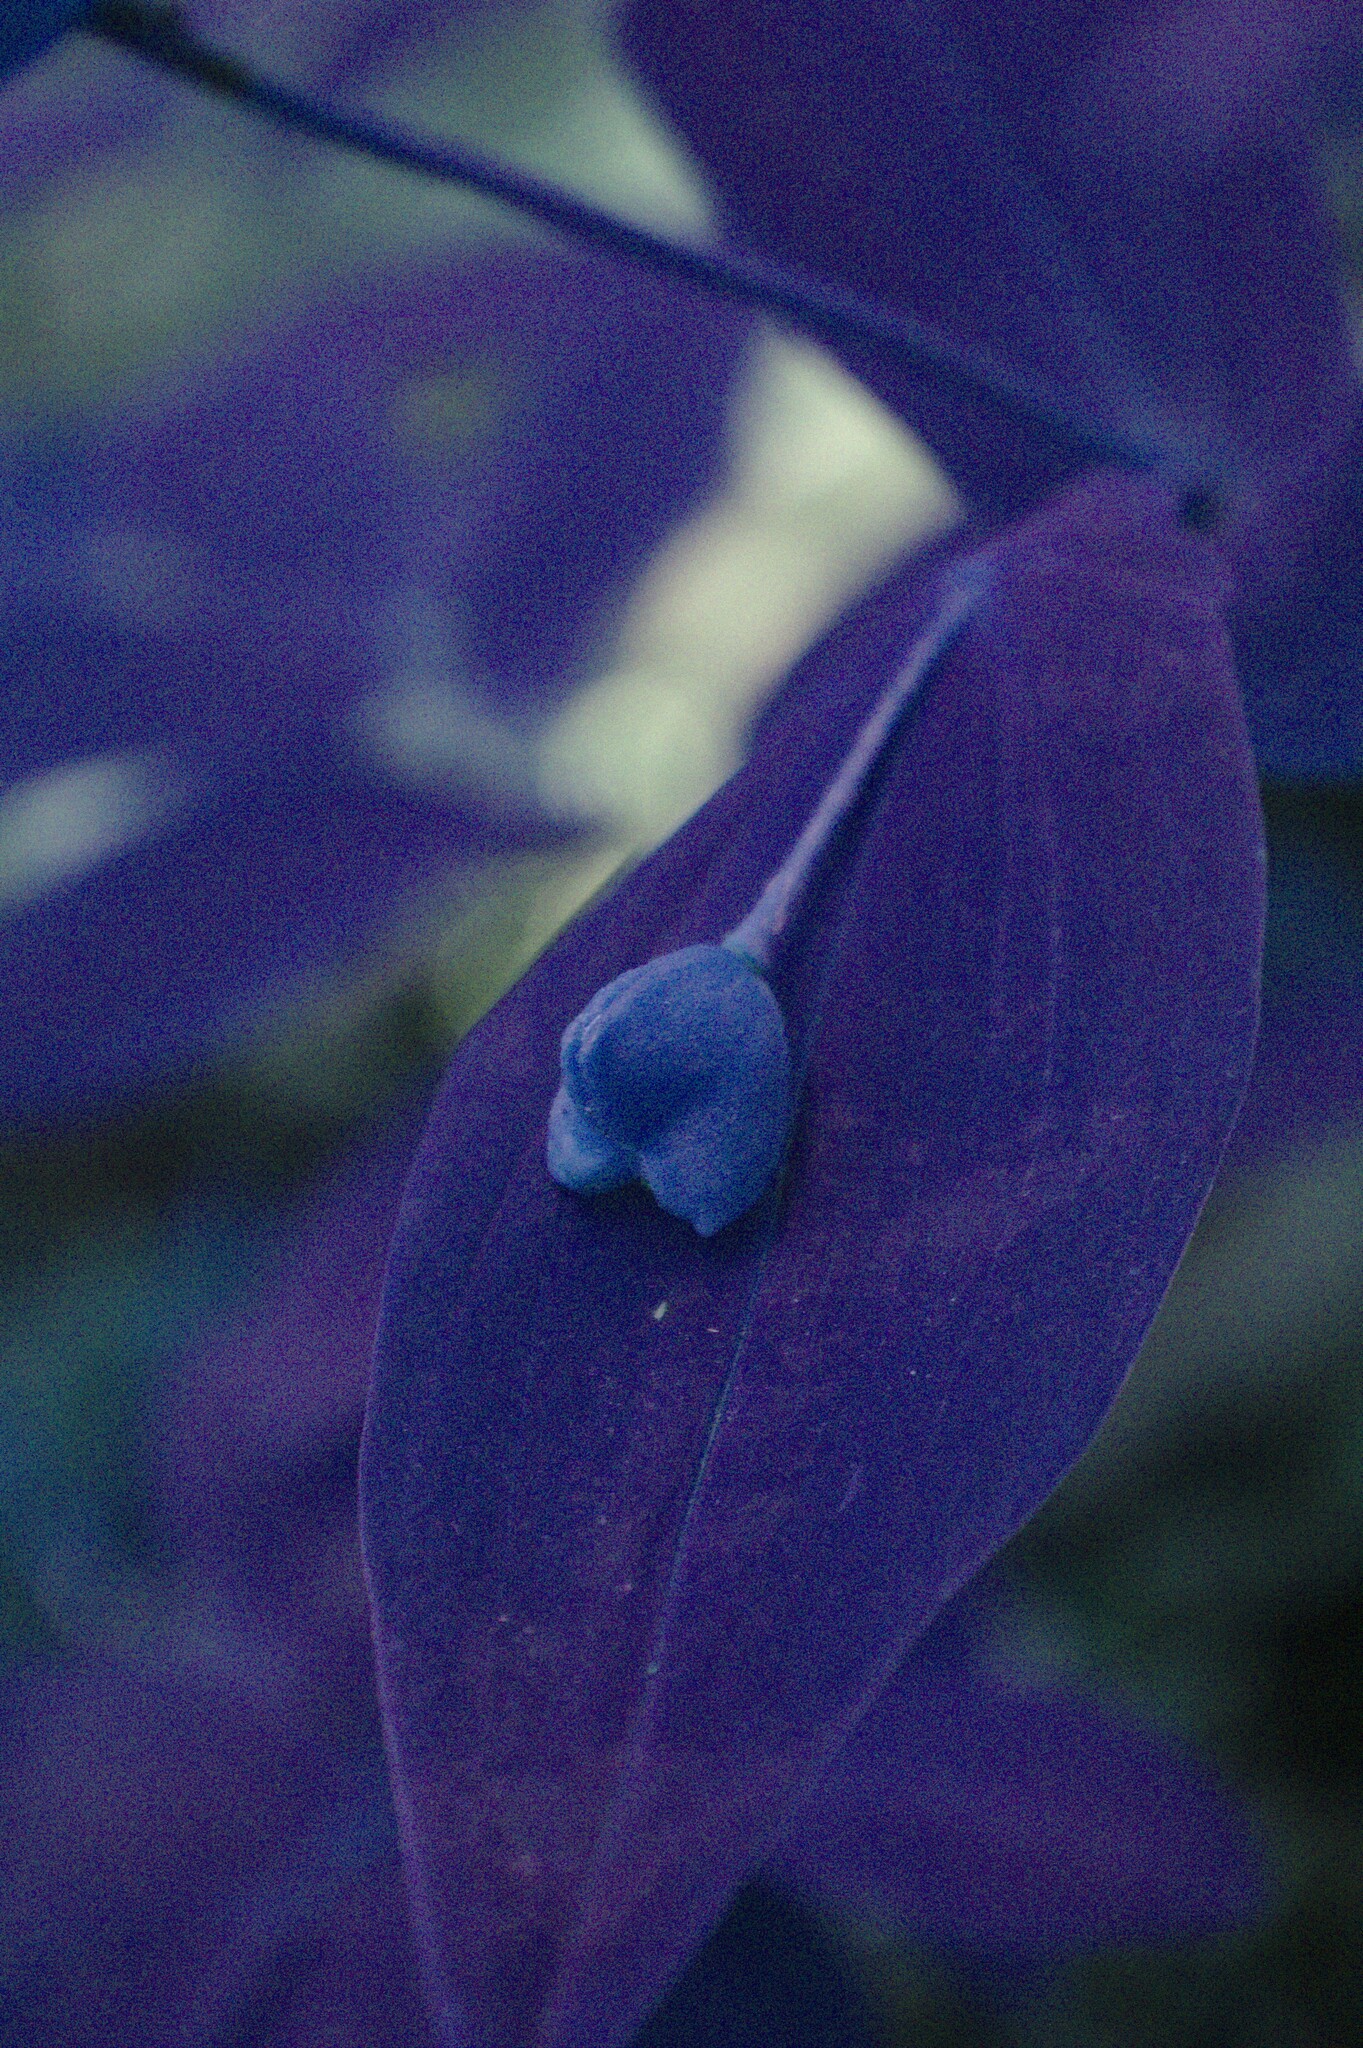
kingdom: Plantae
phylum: Tracheophyta
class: Liliopsida
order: Liliales
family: Colchicaceae
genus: Uvularia
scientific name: Uvularia grandiflora
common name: Bellwort
